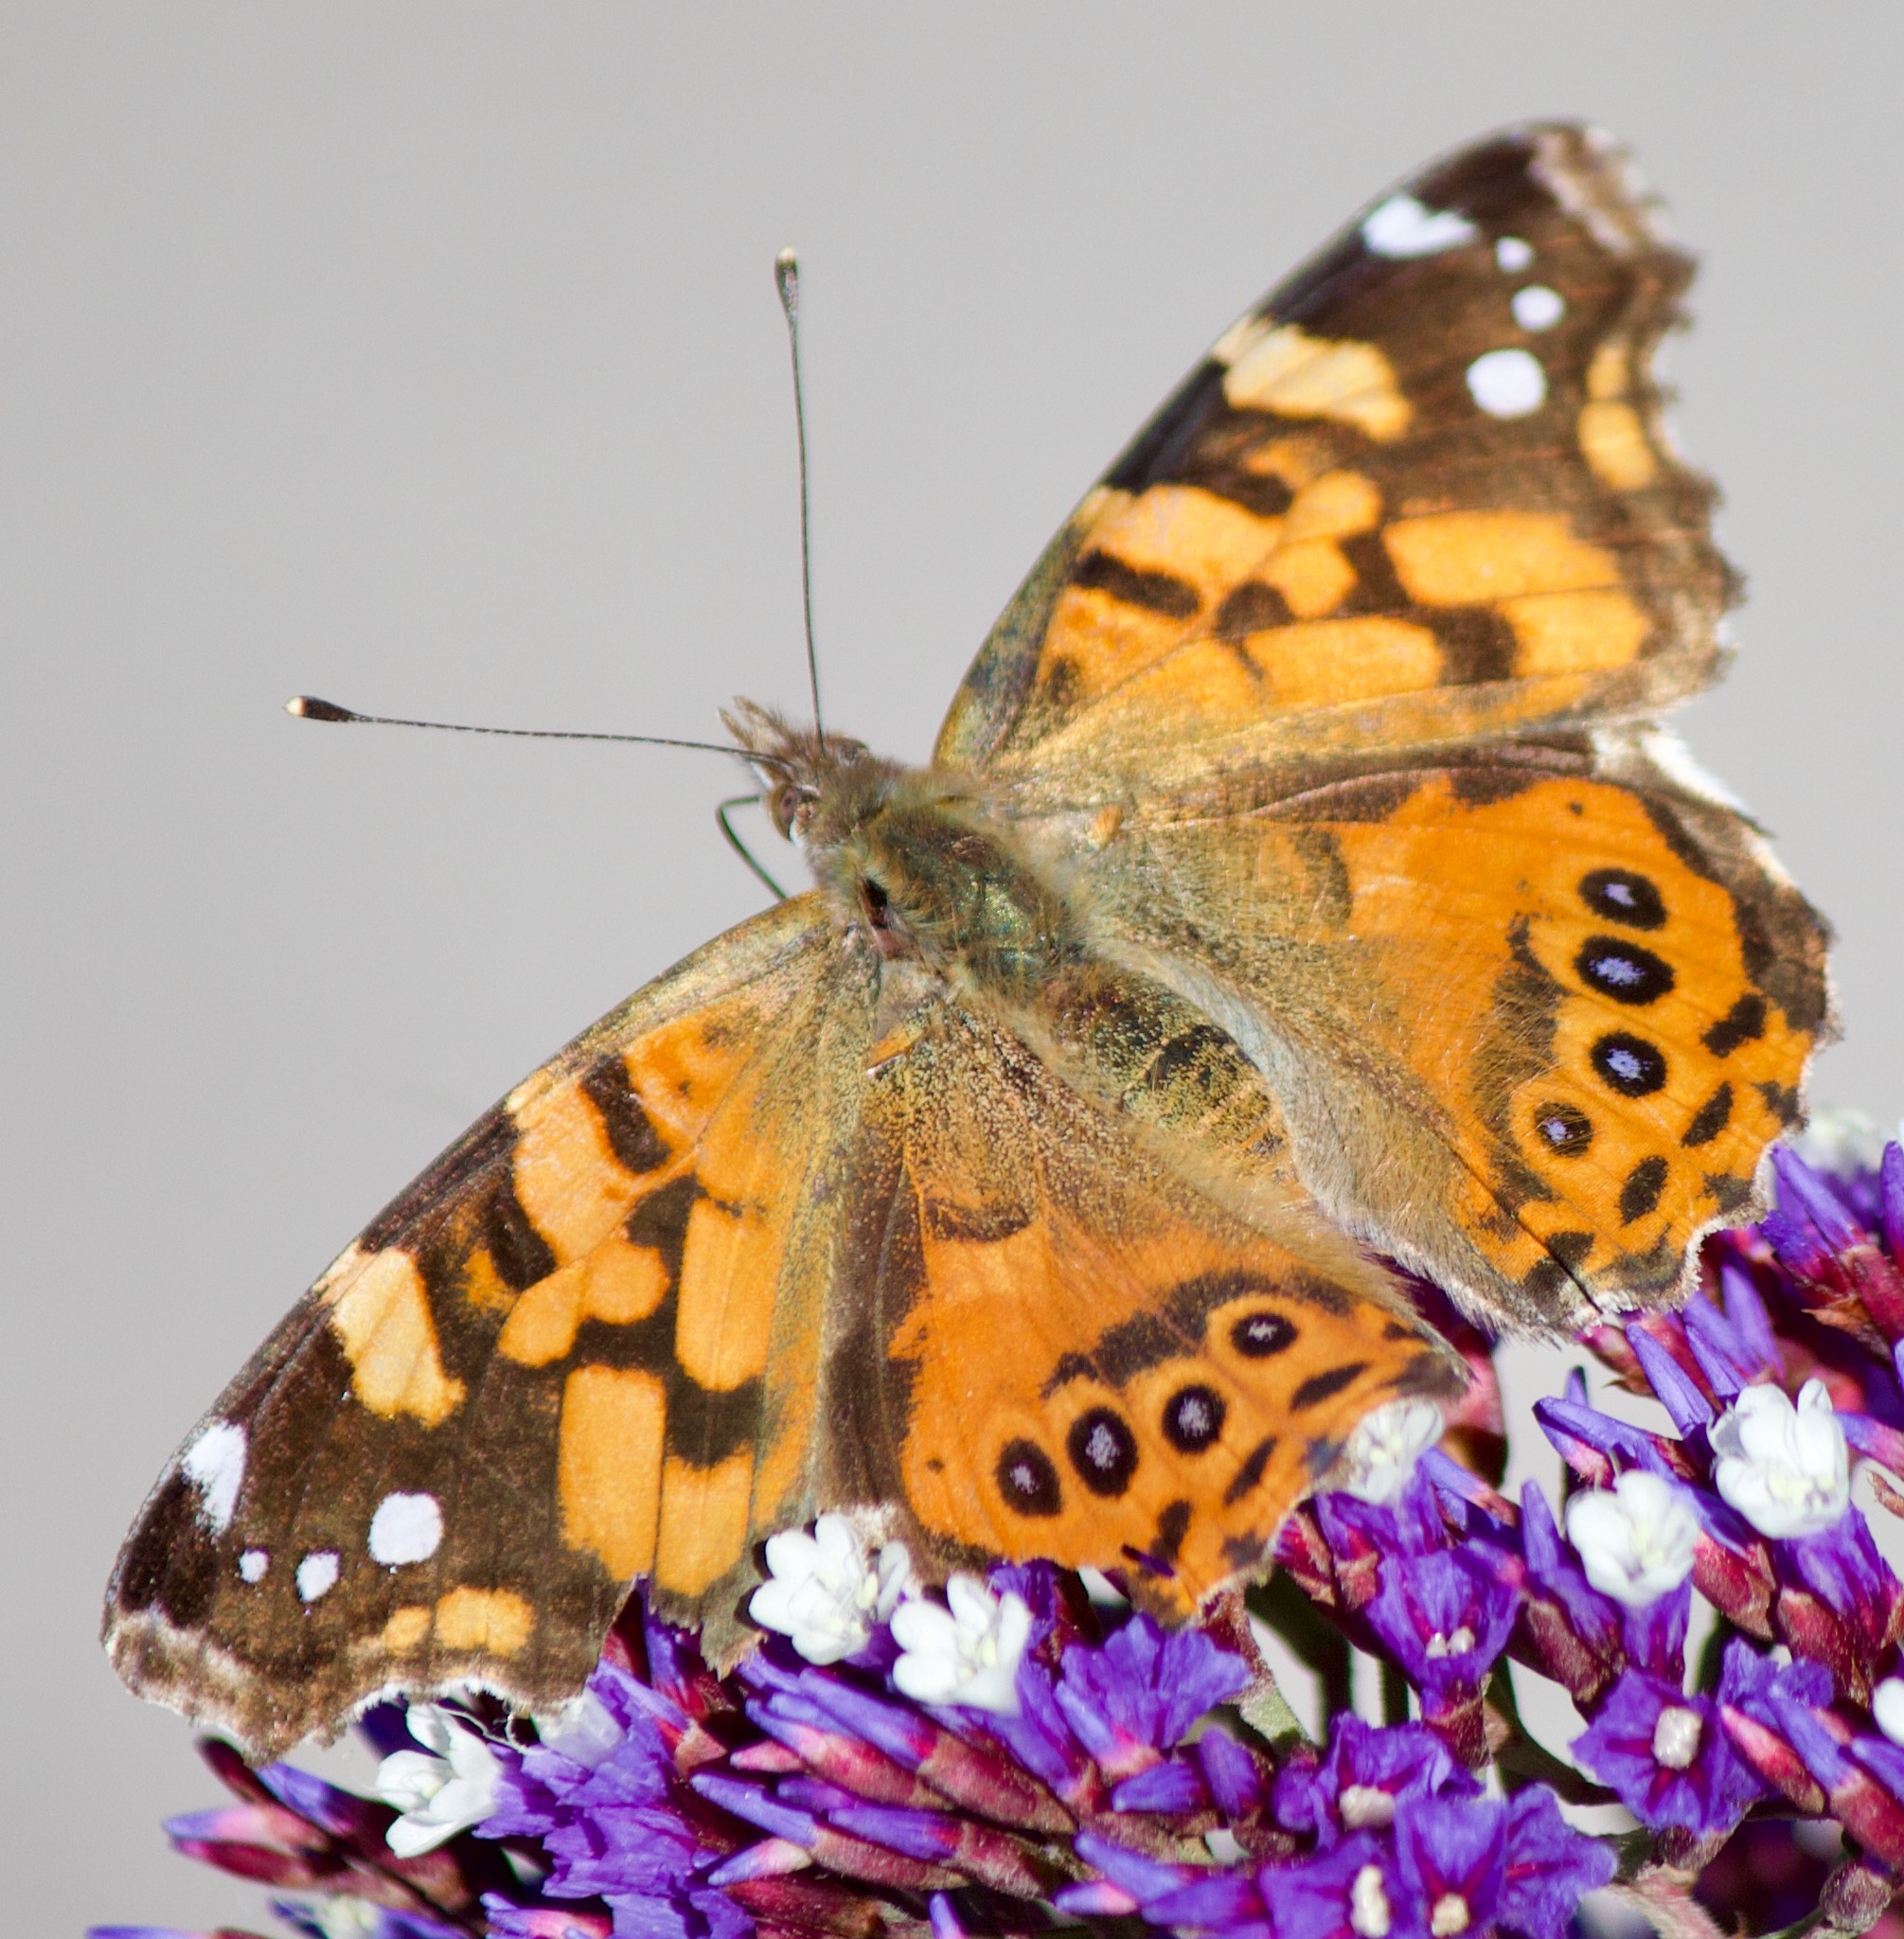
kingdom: Animalia
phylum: Arthropoda
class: Insecta
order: Lepidoptera
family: Nymphalidae
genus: Vanessa
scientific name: Vanessa carye
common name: Subtropical lady
